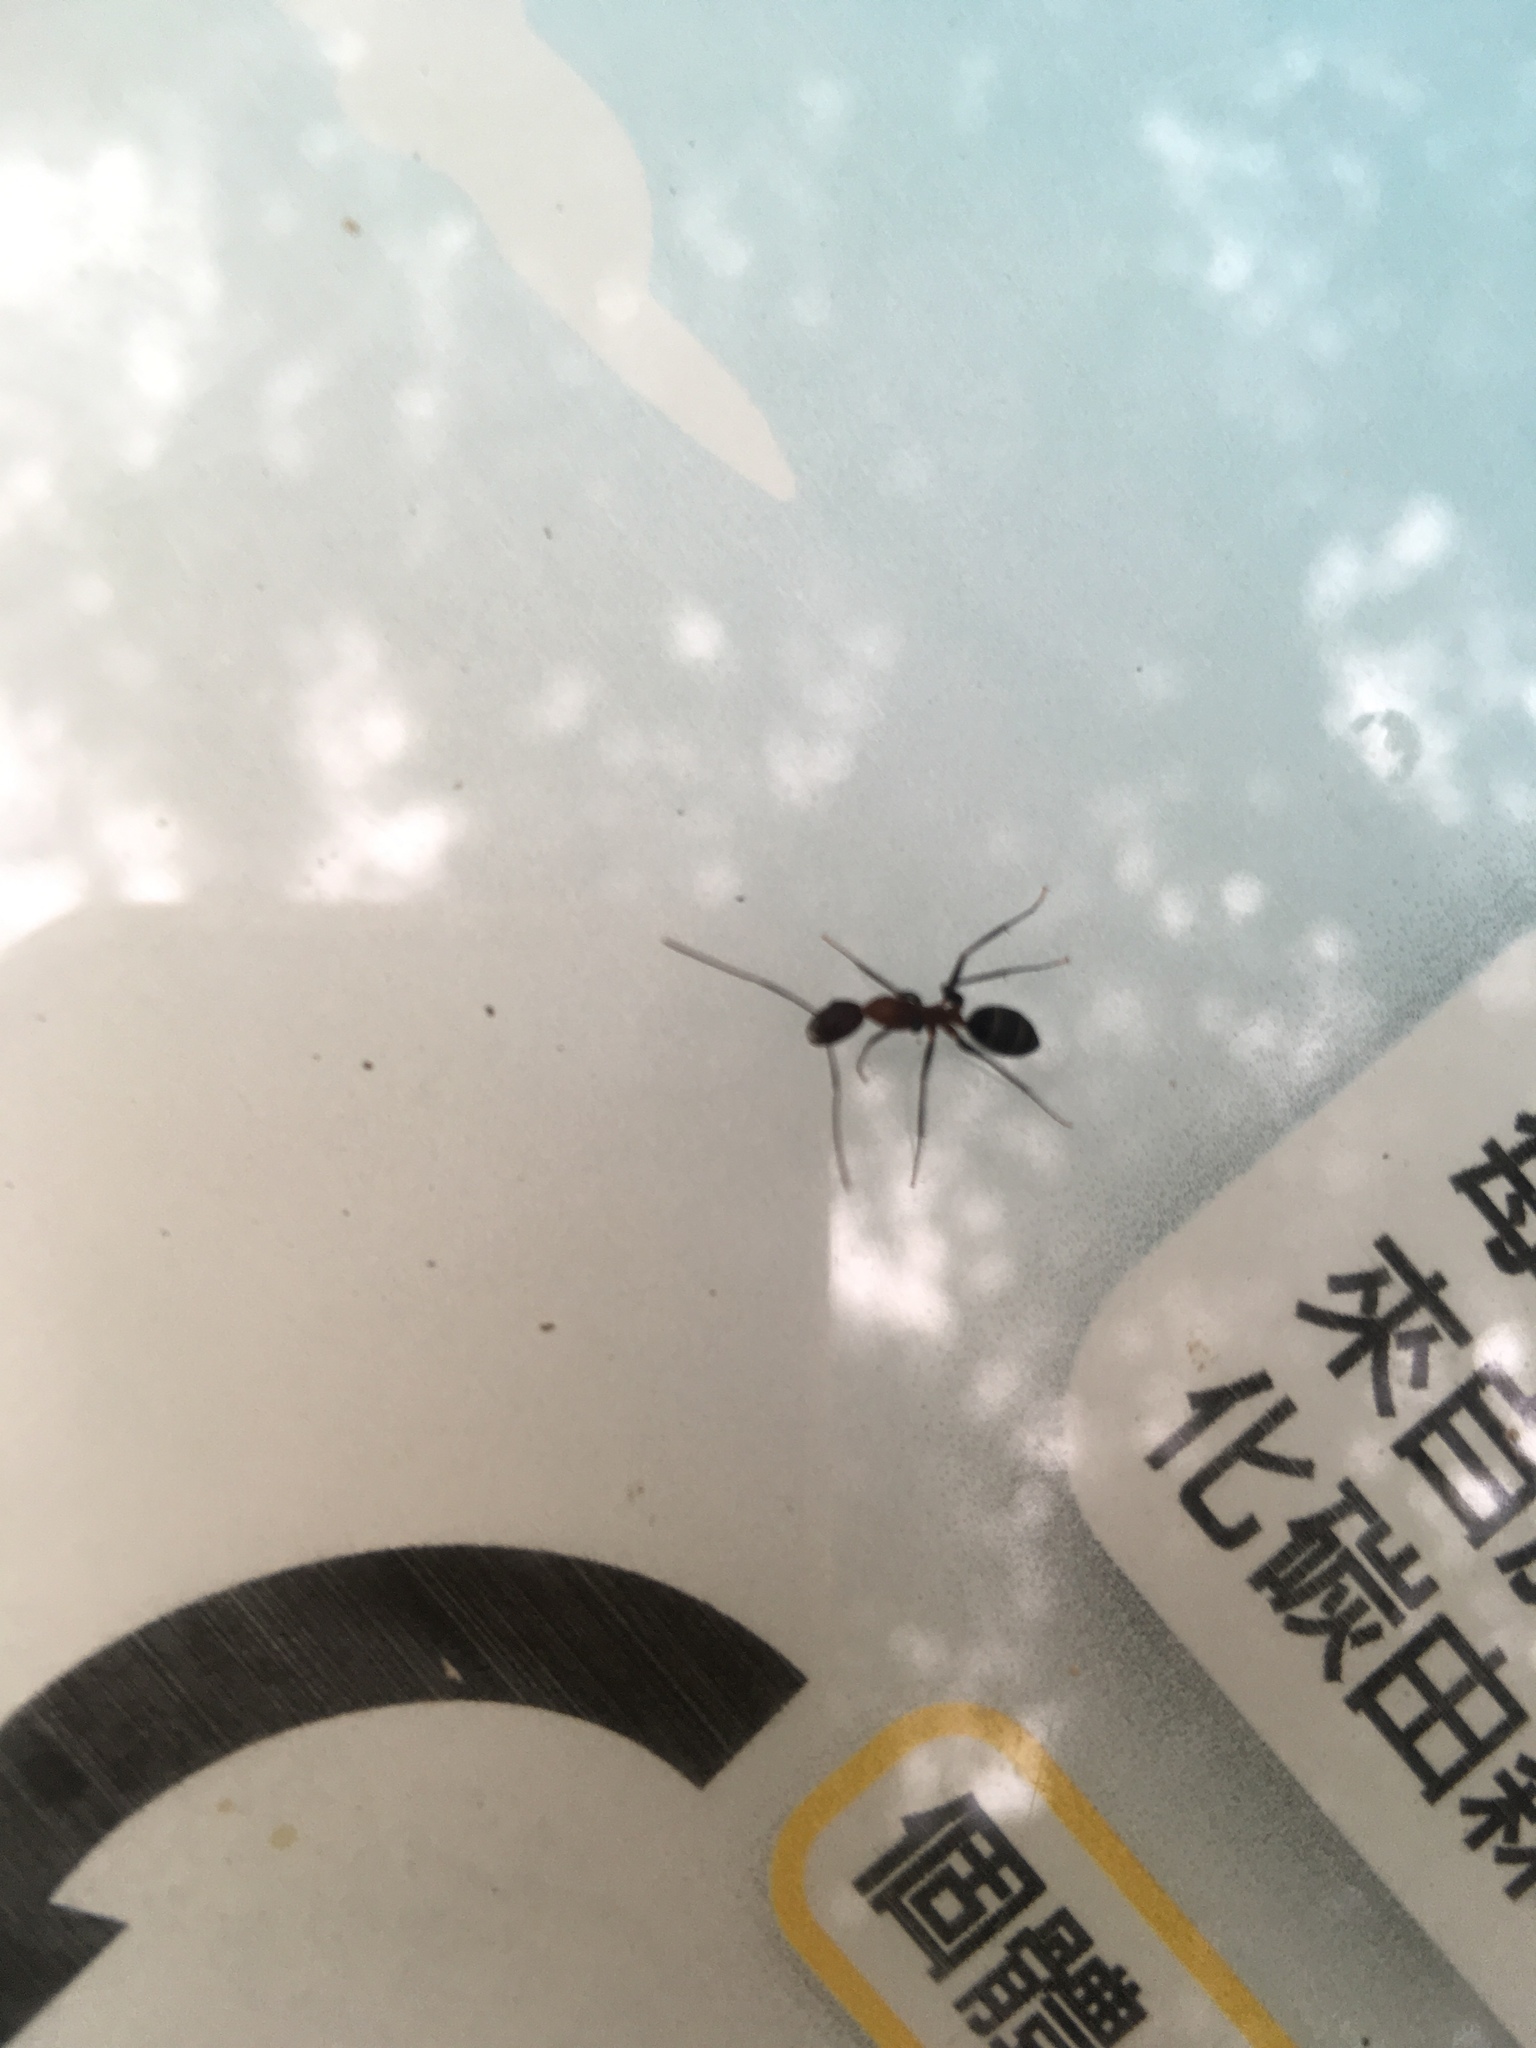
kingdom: Animalia
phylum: Arthropoda
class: Insecta
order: Hymenoptera
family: Formicidae
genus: Camponotus
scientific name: Camponotus habereri
